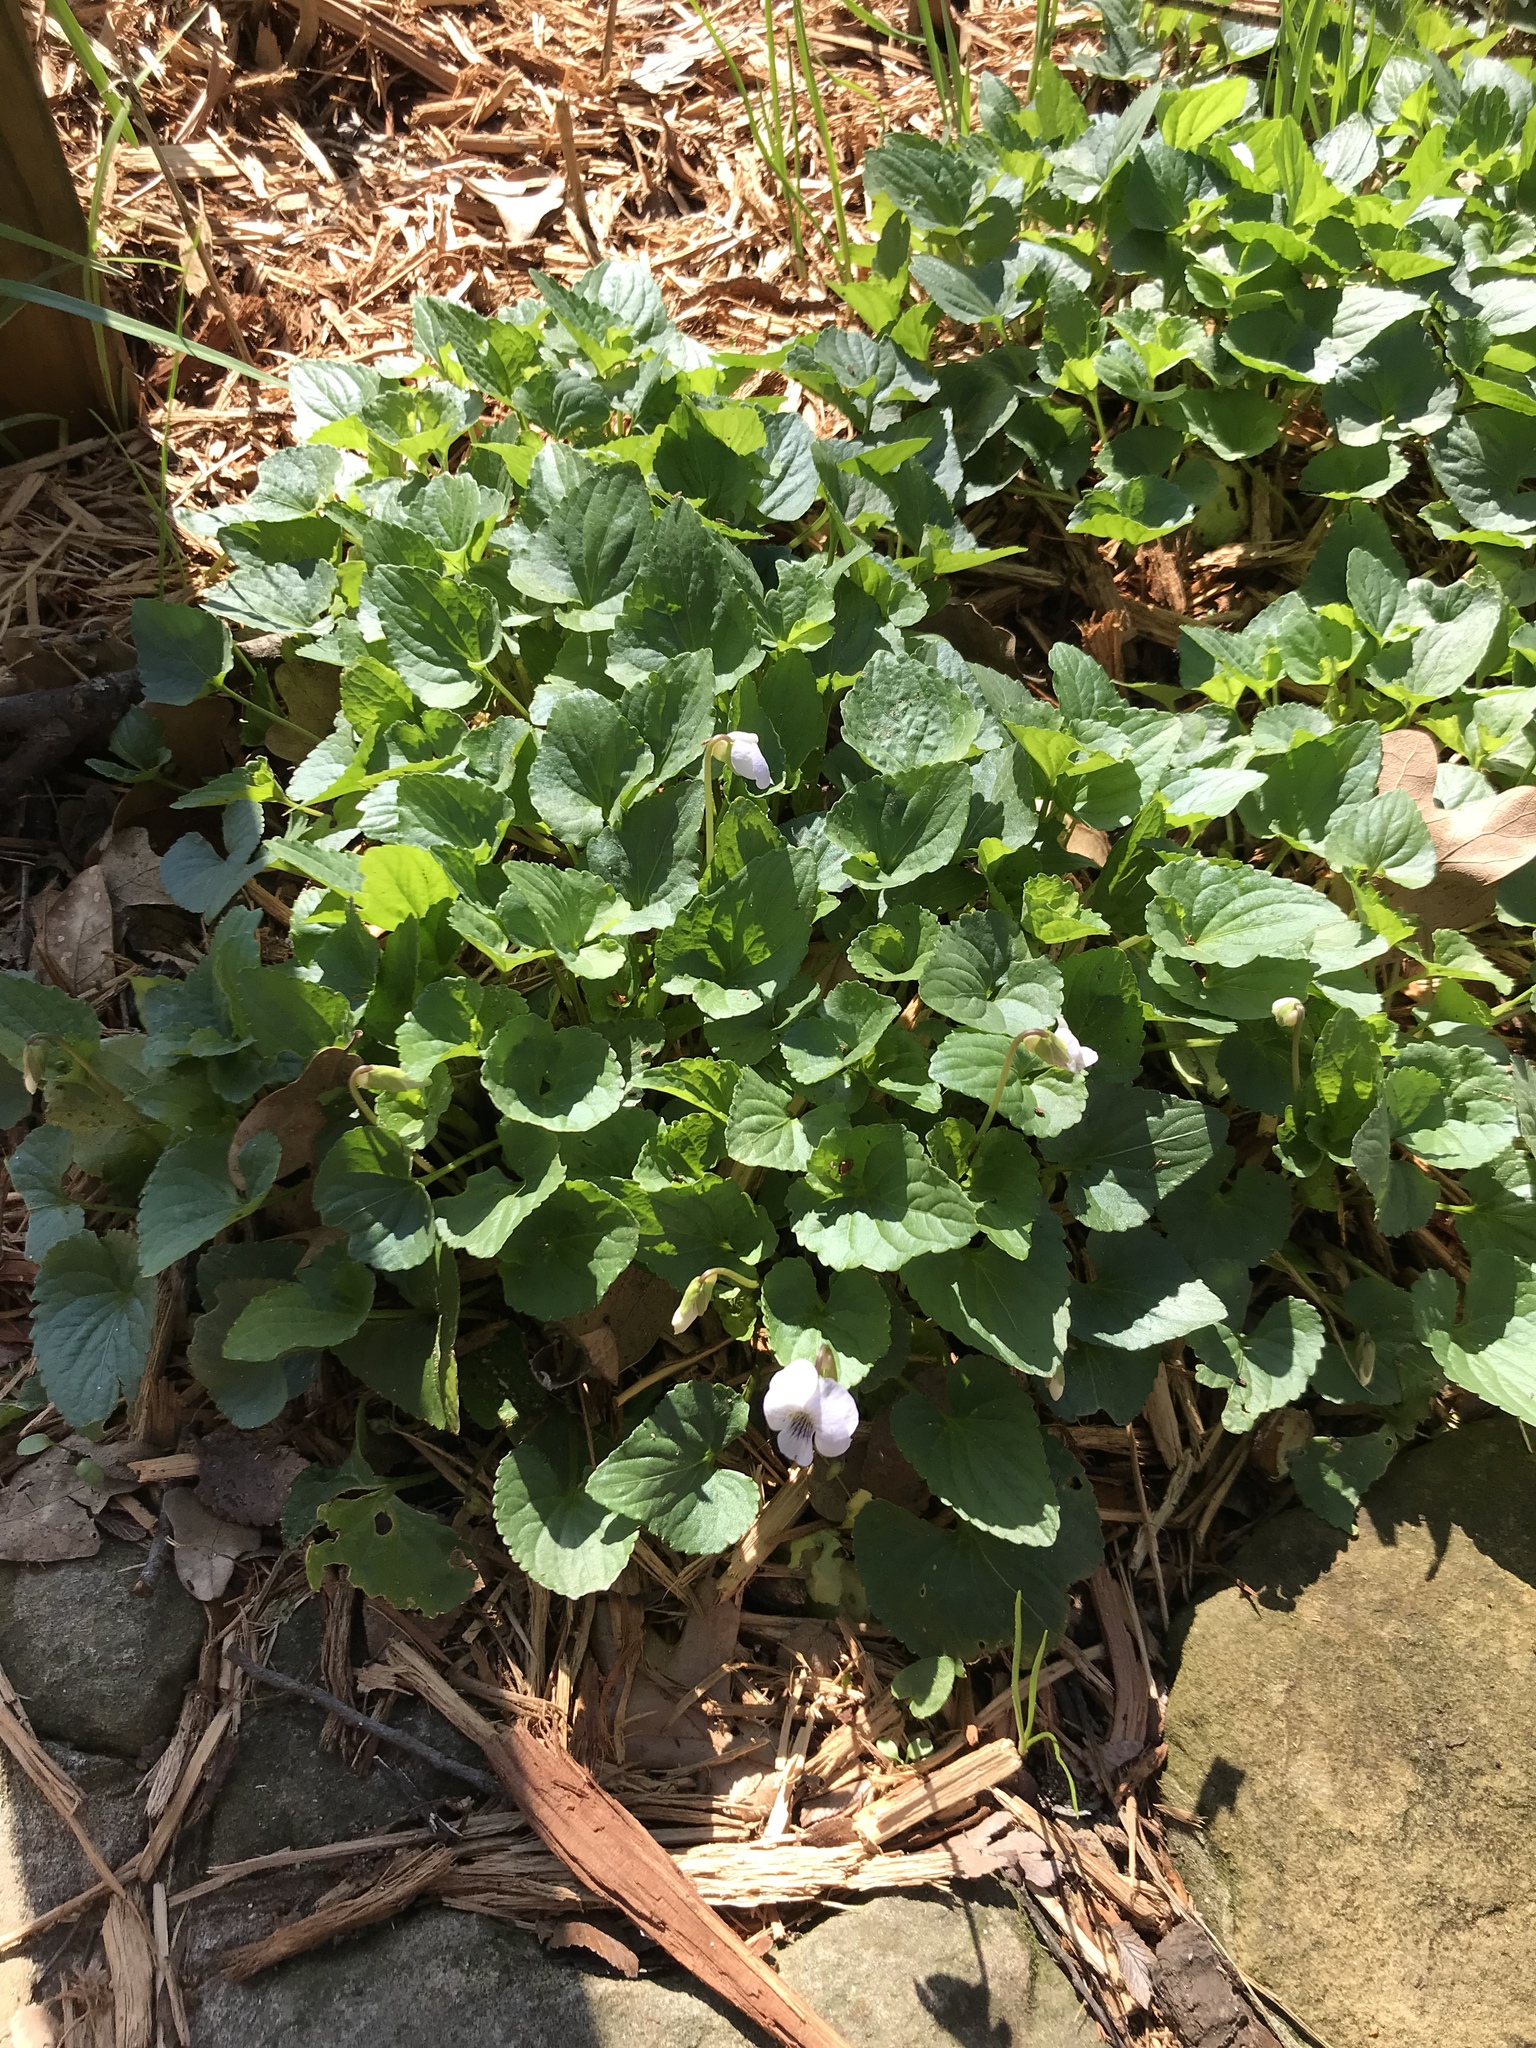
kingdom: Plantae
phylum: Tracheophyta
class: Magnoliopsida
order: Malpighiales
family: Violaceae
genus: Viola
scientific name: Viola sororia
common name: Dooryard violet
